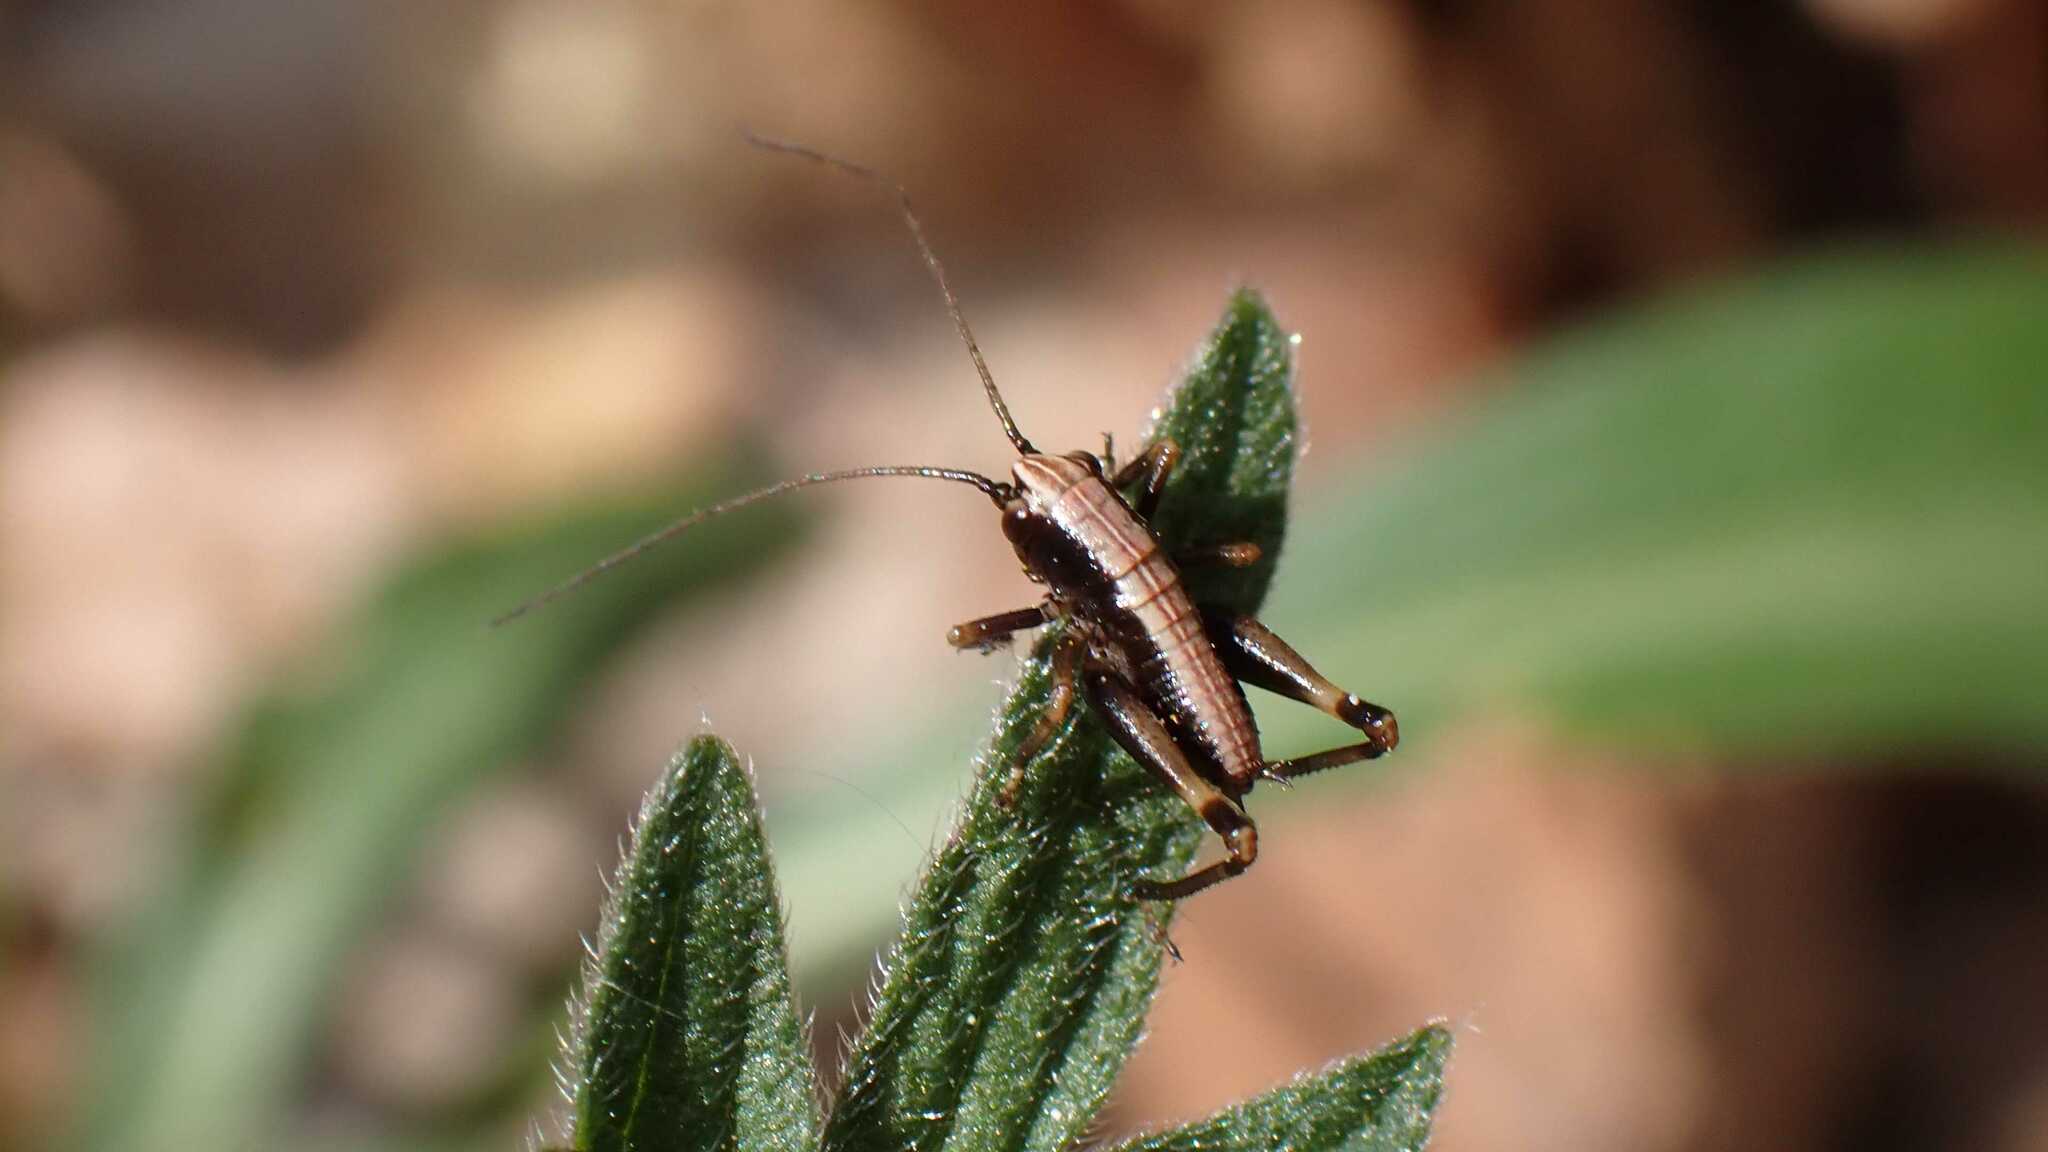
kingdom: Animalia
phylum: Arthropoda
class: Insecta
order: Orthoptera
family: Tettigoniidae
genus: Pholidoptera
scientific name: Pholidoptera griseoaptera
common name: Dark bush-cricket
